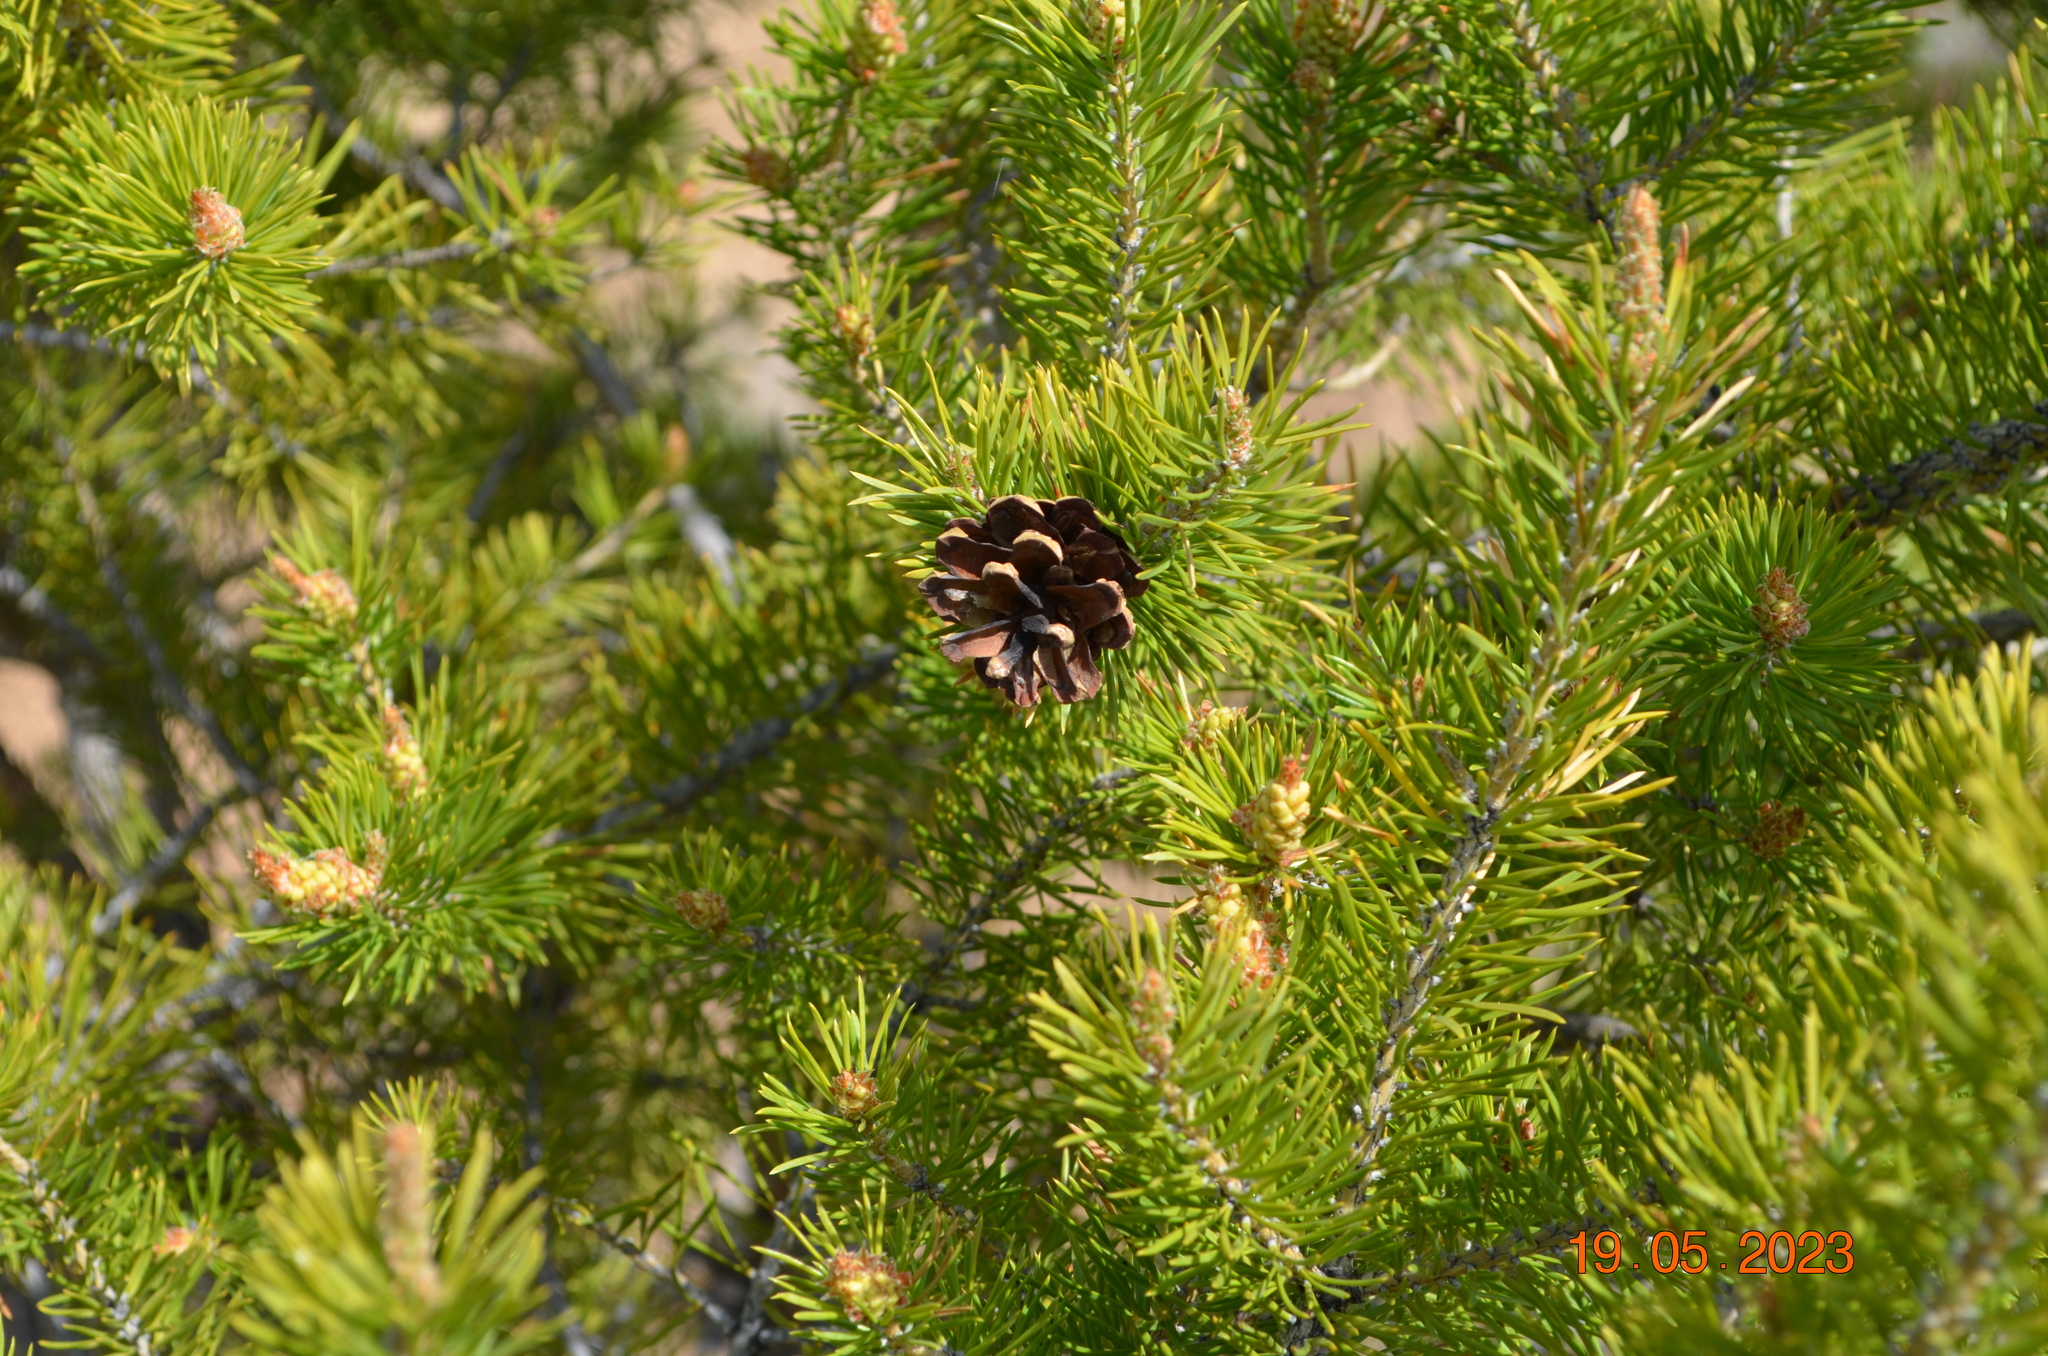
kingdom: Plantae
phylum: Tracheophyta
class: Pinopsida
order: Pinales
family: Pinaceae
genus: Pinus
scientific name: Pinus sylvestris
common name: Scots pine
